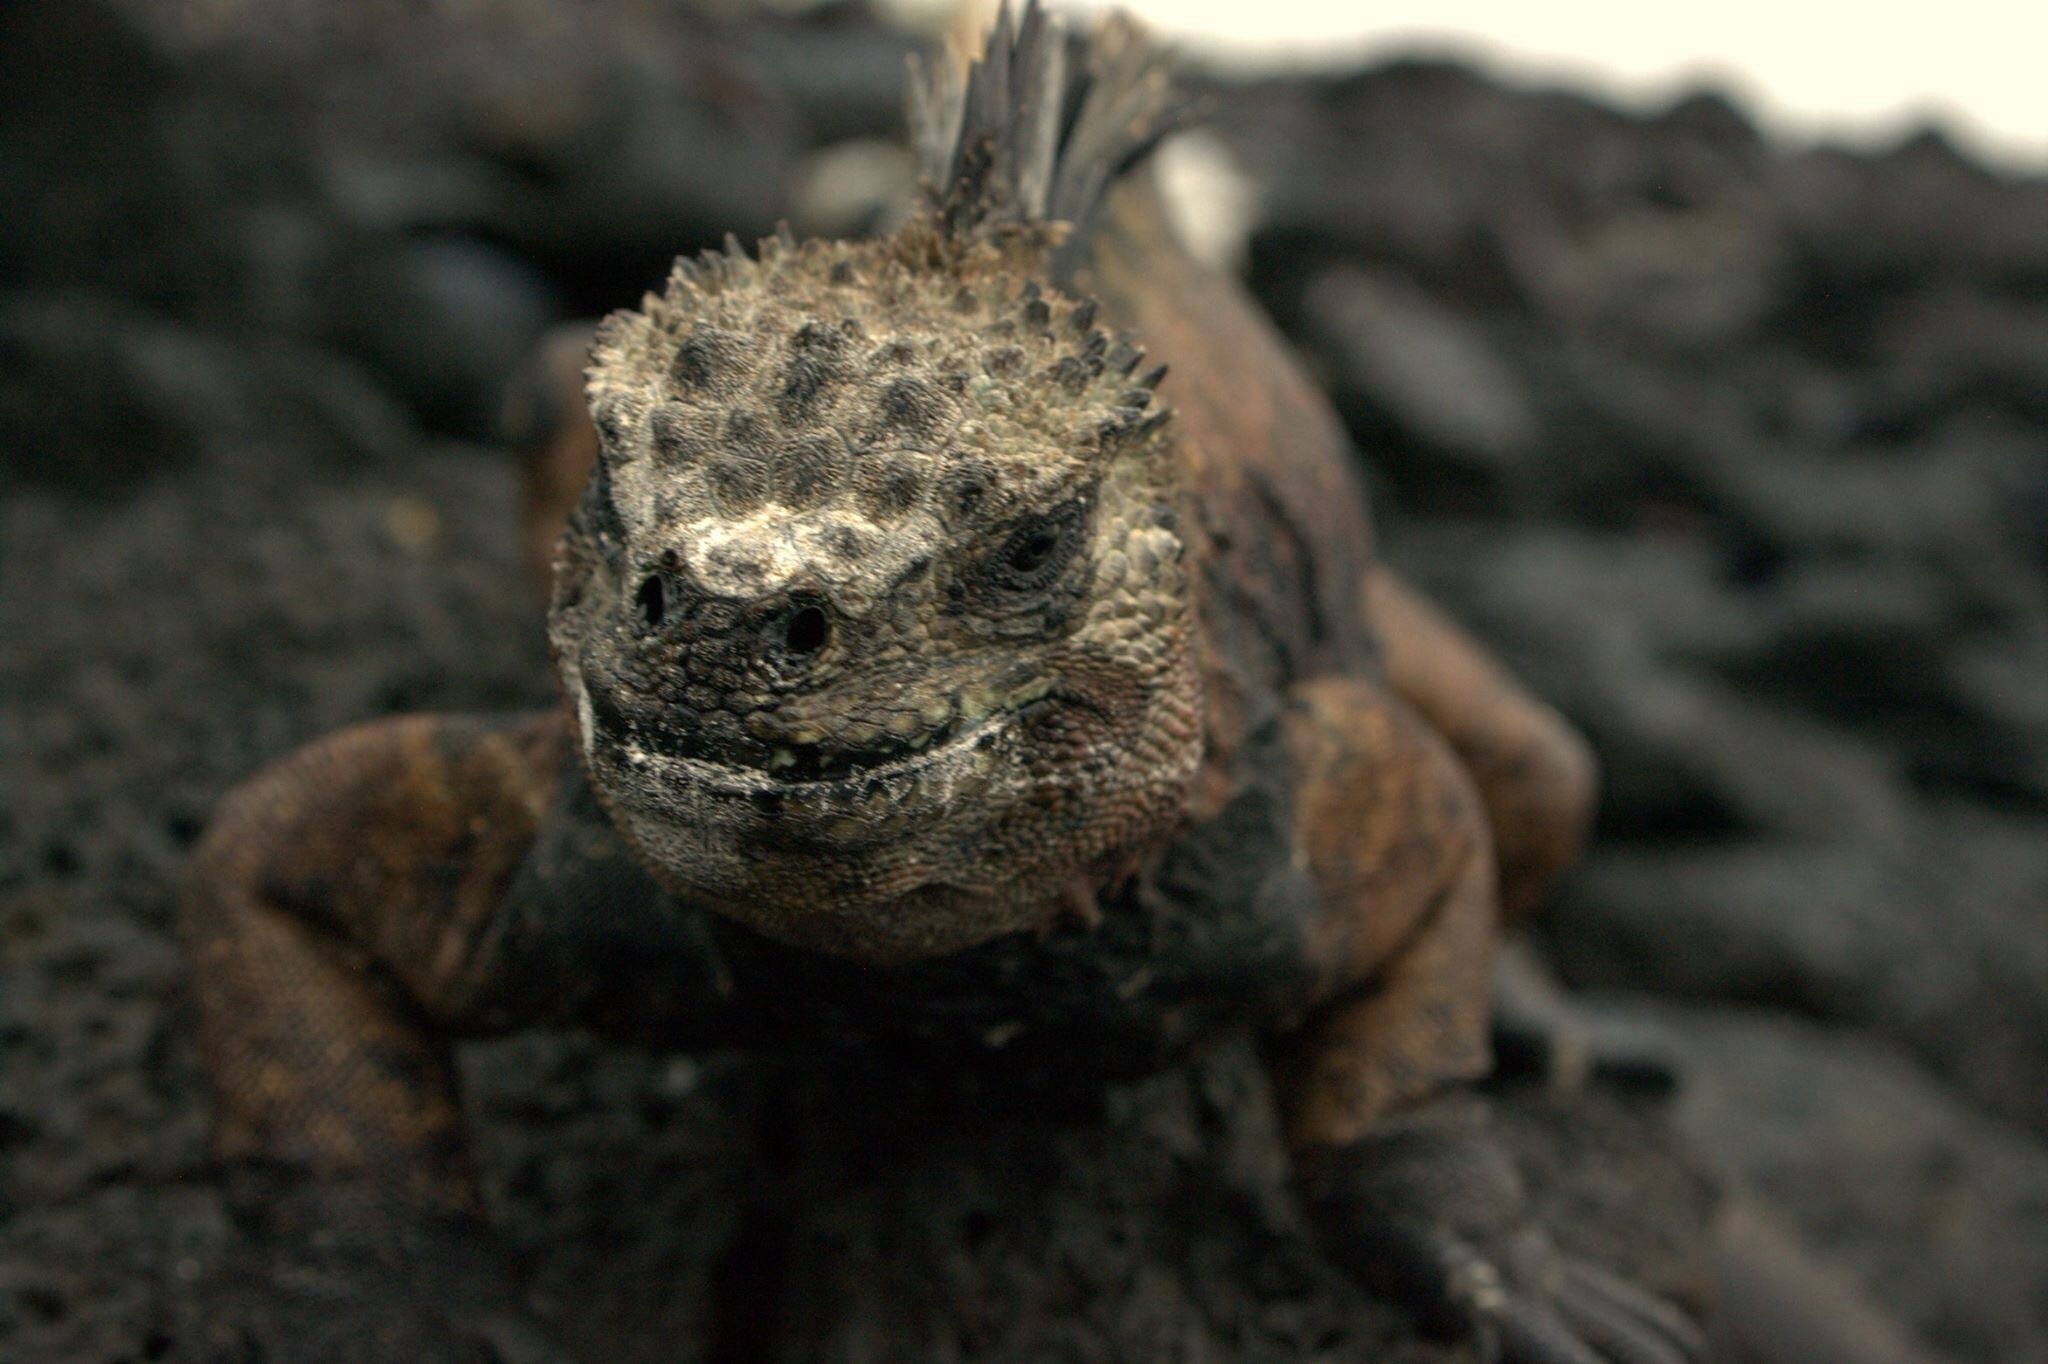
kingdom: Animalia
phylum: Chordata
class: Squamata
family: Iguanidae
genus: Amblyrhynchus
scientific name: Amblyrhynchus cristatus
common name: Marine iguana
